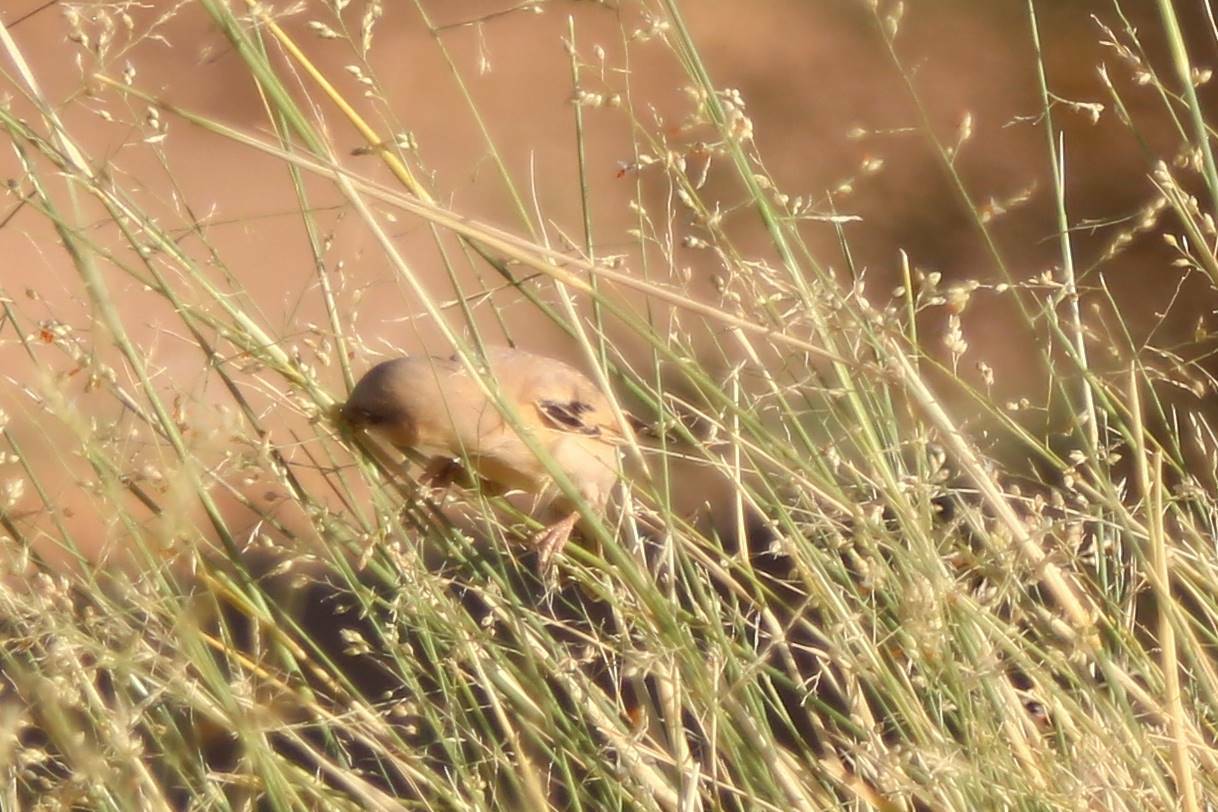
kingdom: Animalia
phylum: Chordata
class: Aves
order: Passeriformes
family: Passeridae
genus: Passer
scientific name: Passer simplex
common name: Desert sparrow
